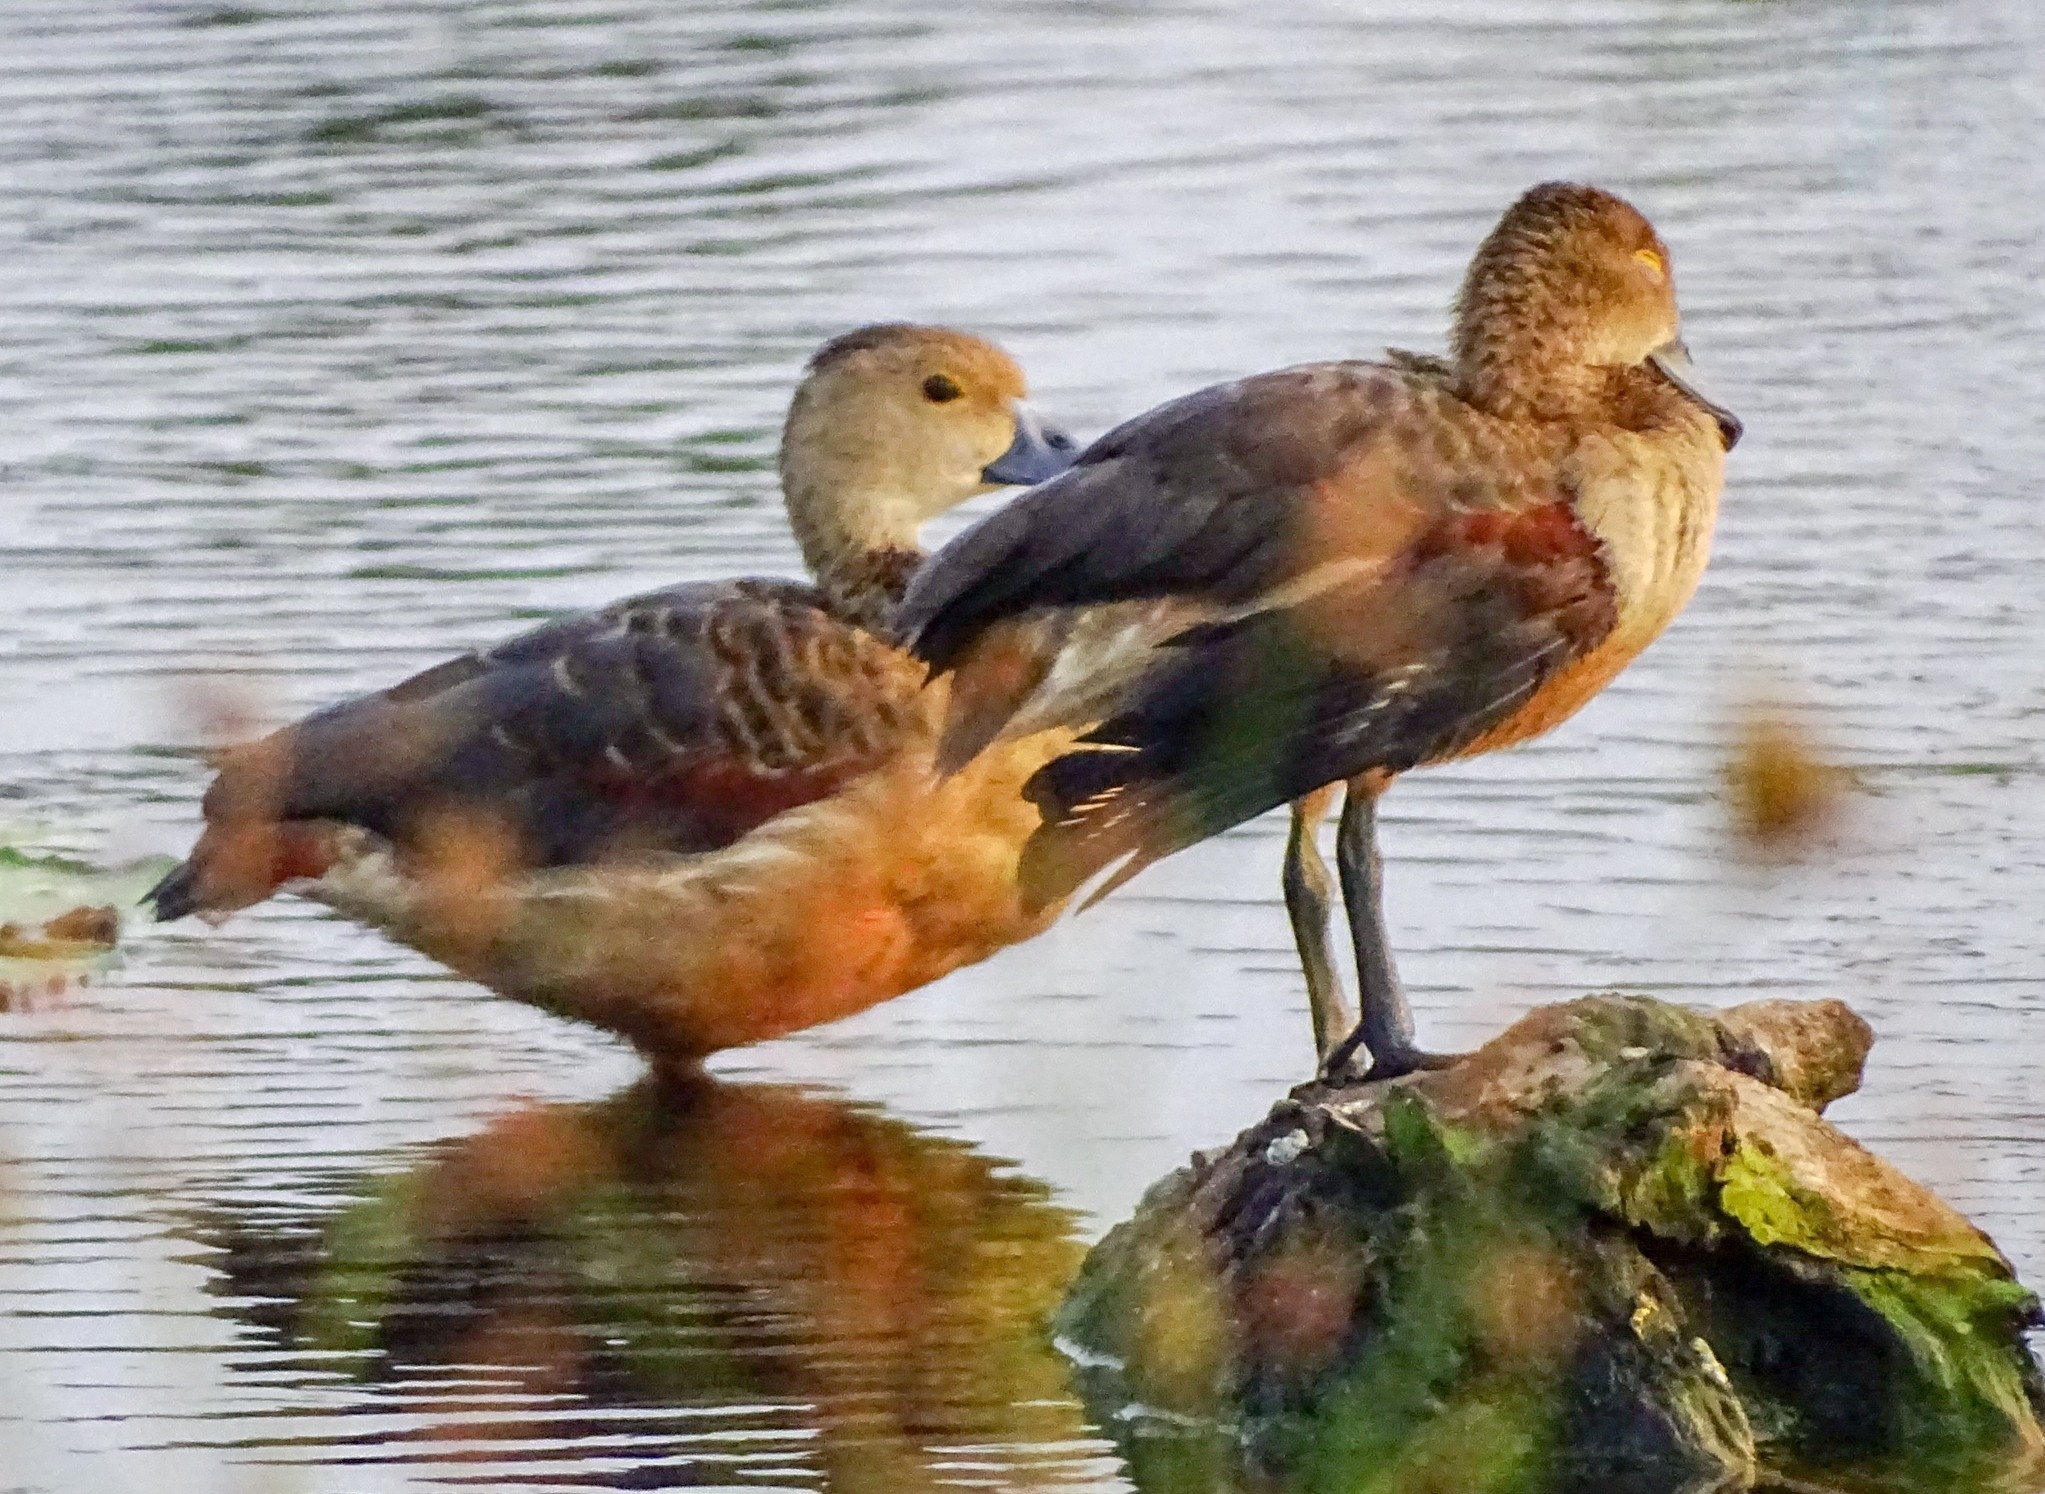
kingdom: Animalia
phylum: Chordata
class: Aves
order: Anseriformes
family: Anatidae
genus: Dendrocygna
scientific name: Dendrocygna javanica
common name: Lesser whistling-duck
